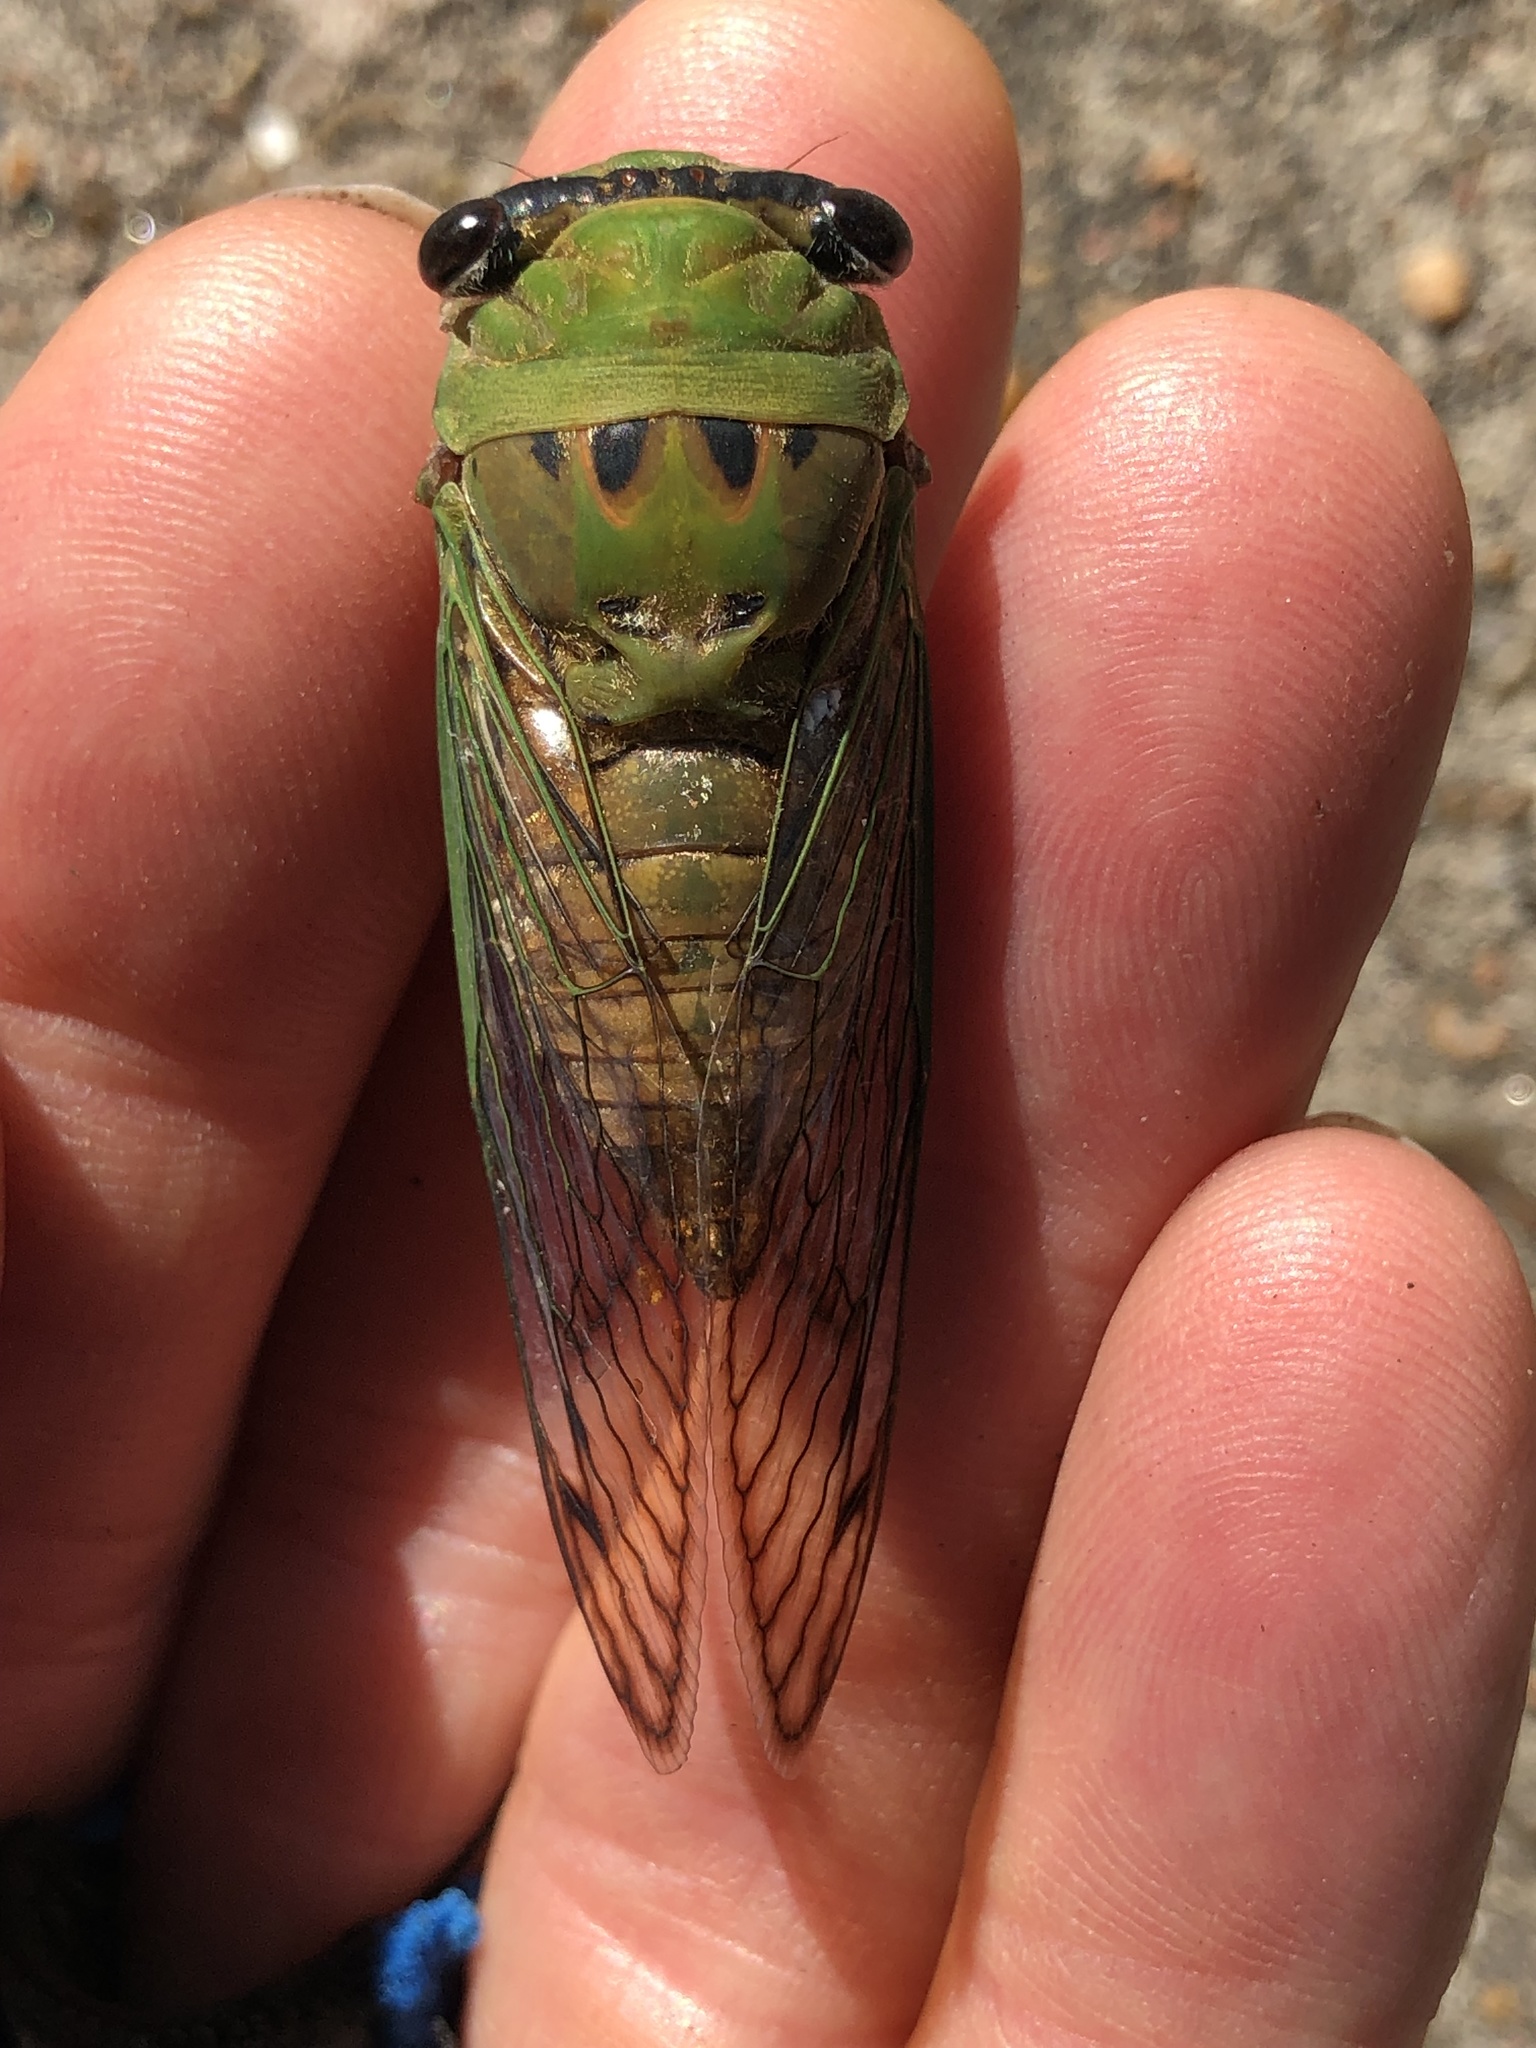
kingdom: Animalia
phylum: Arthropoda
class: Insecta
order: Hemiptera
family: Cicadidae
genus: Neotibicen
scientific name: Neotibicen superbus
